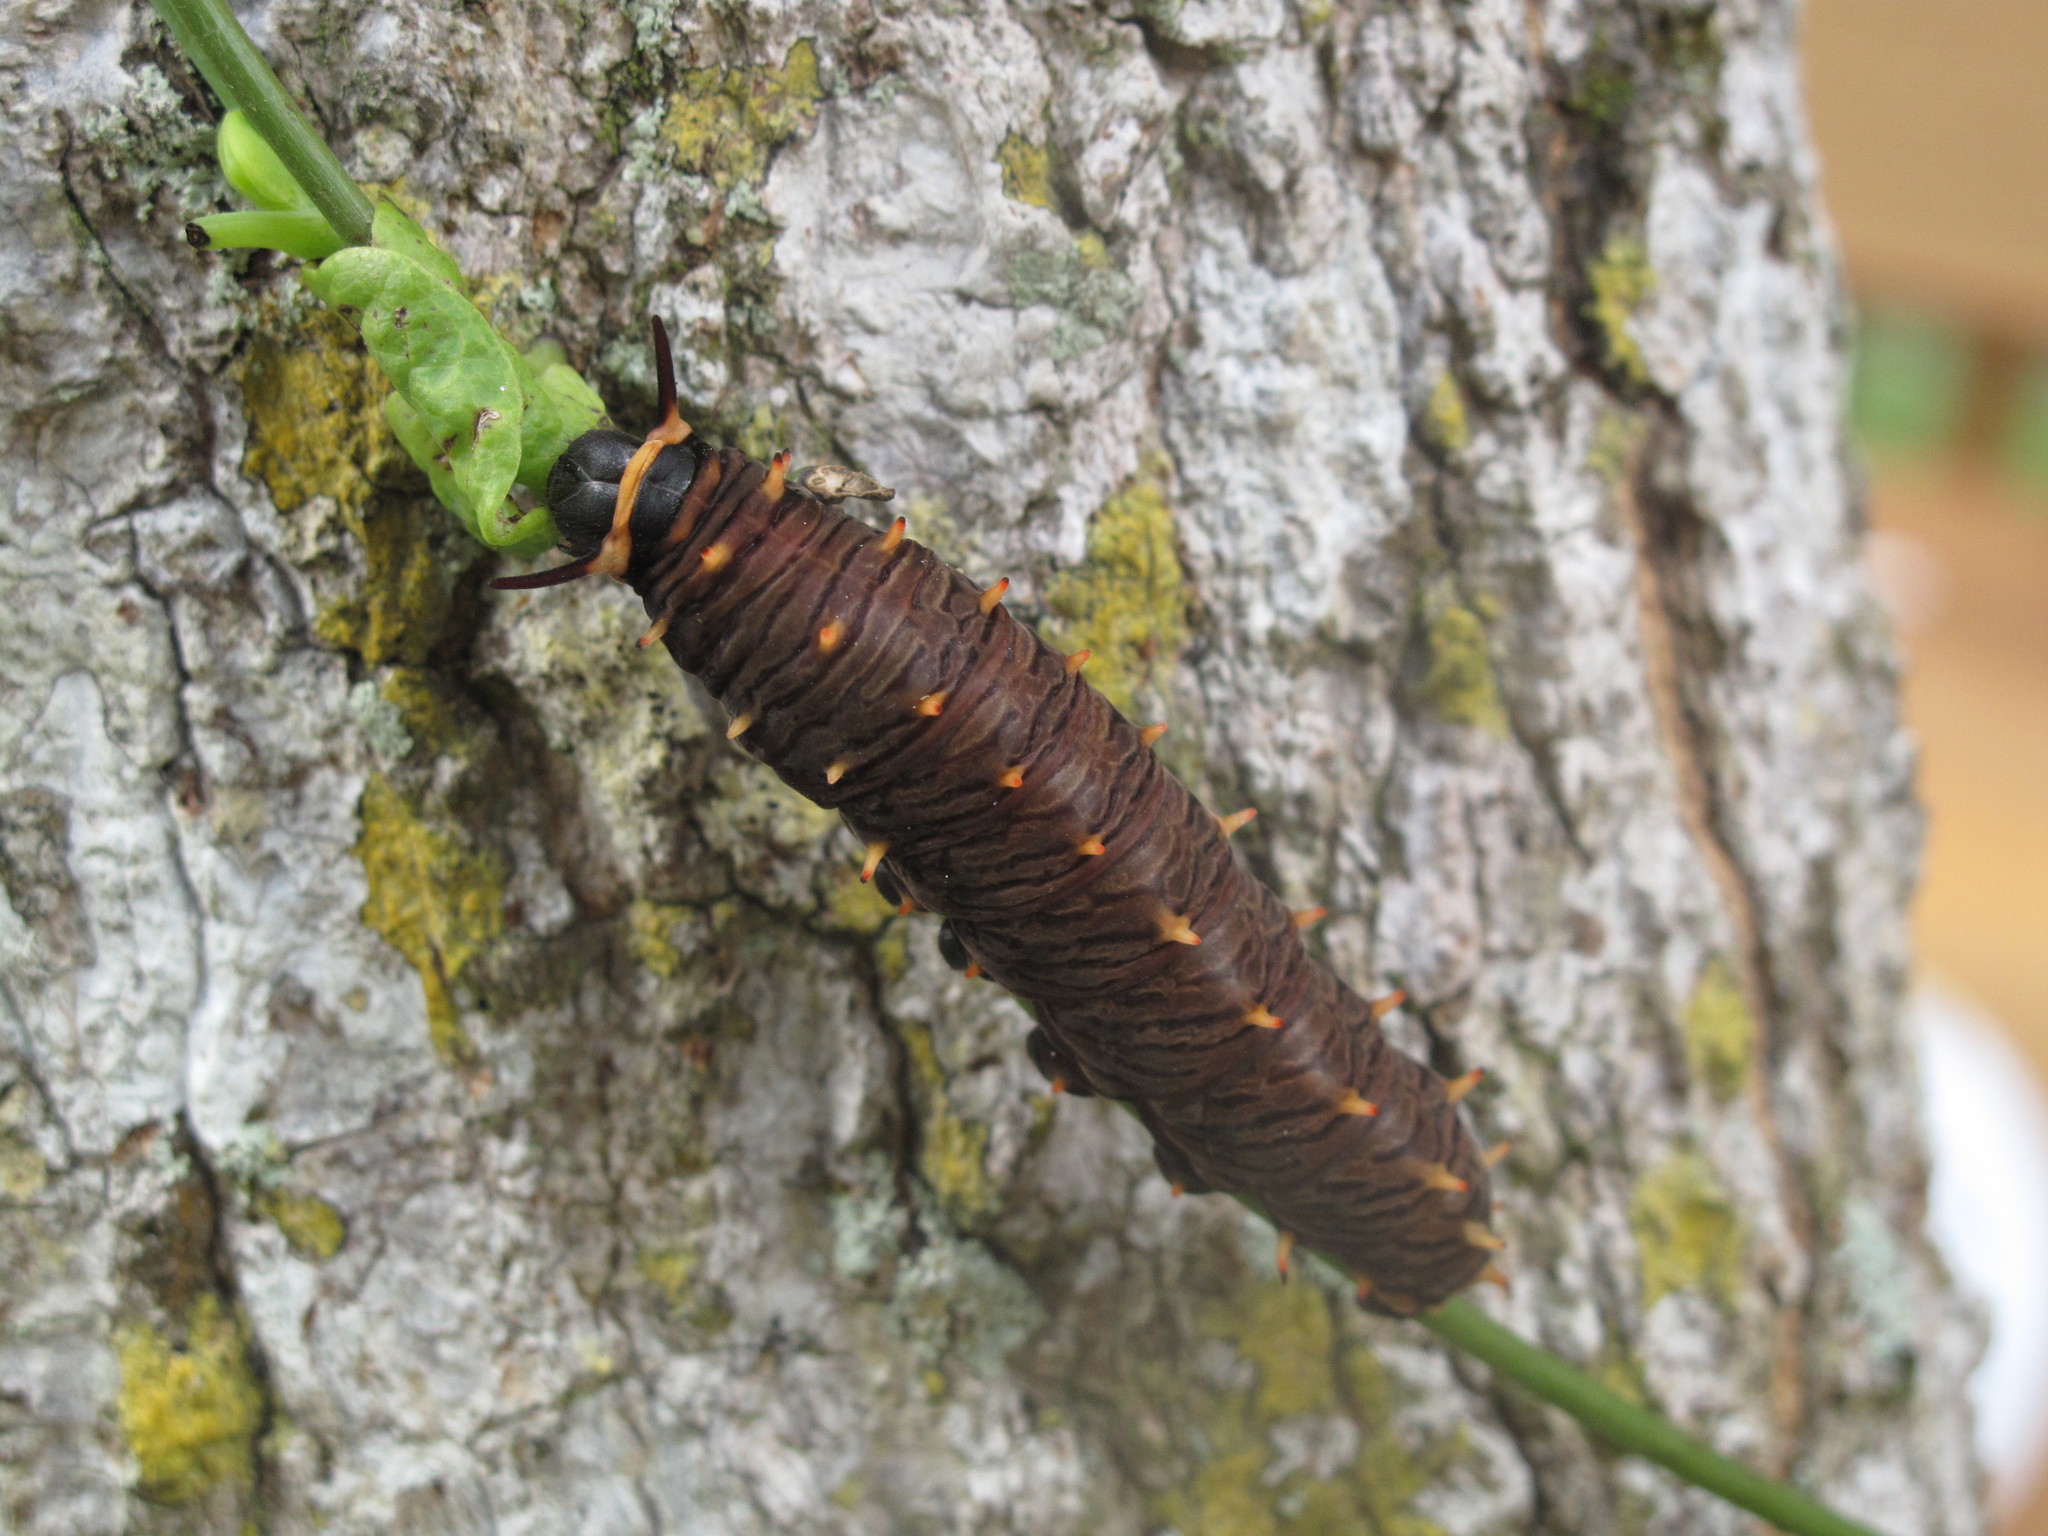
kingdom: Animalia
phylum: Arthropoda
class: Insecta
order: Lepidoptera
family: Papilionidae
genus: Battus
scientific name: Battus polydamas
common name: Polydamas swallowtail
